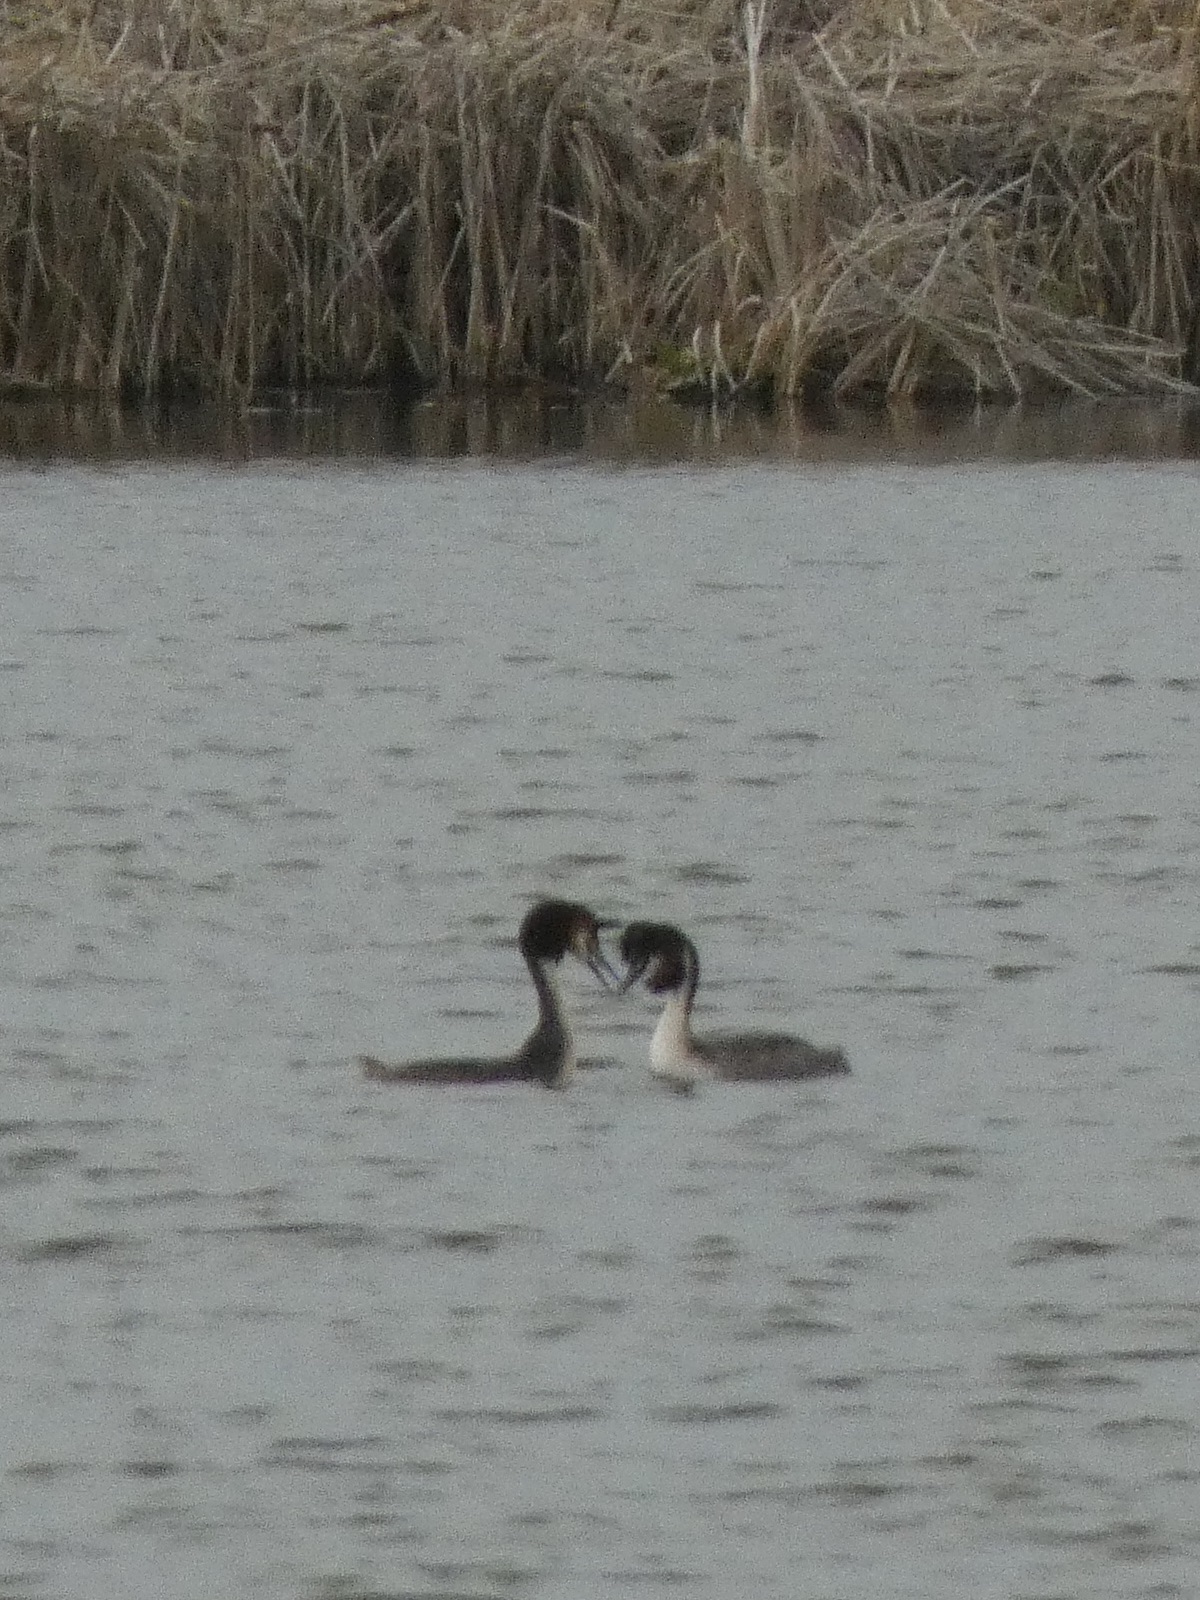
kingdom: Animalia
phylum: Chordata
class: Aves
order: Podicipediformes
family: Podicipedidae
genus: Podiceps
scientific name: Podiceps cristatus
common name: Great crested grebe
